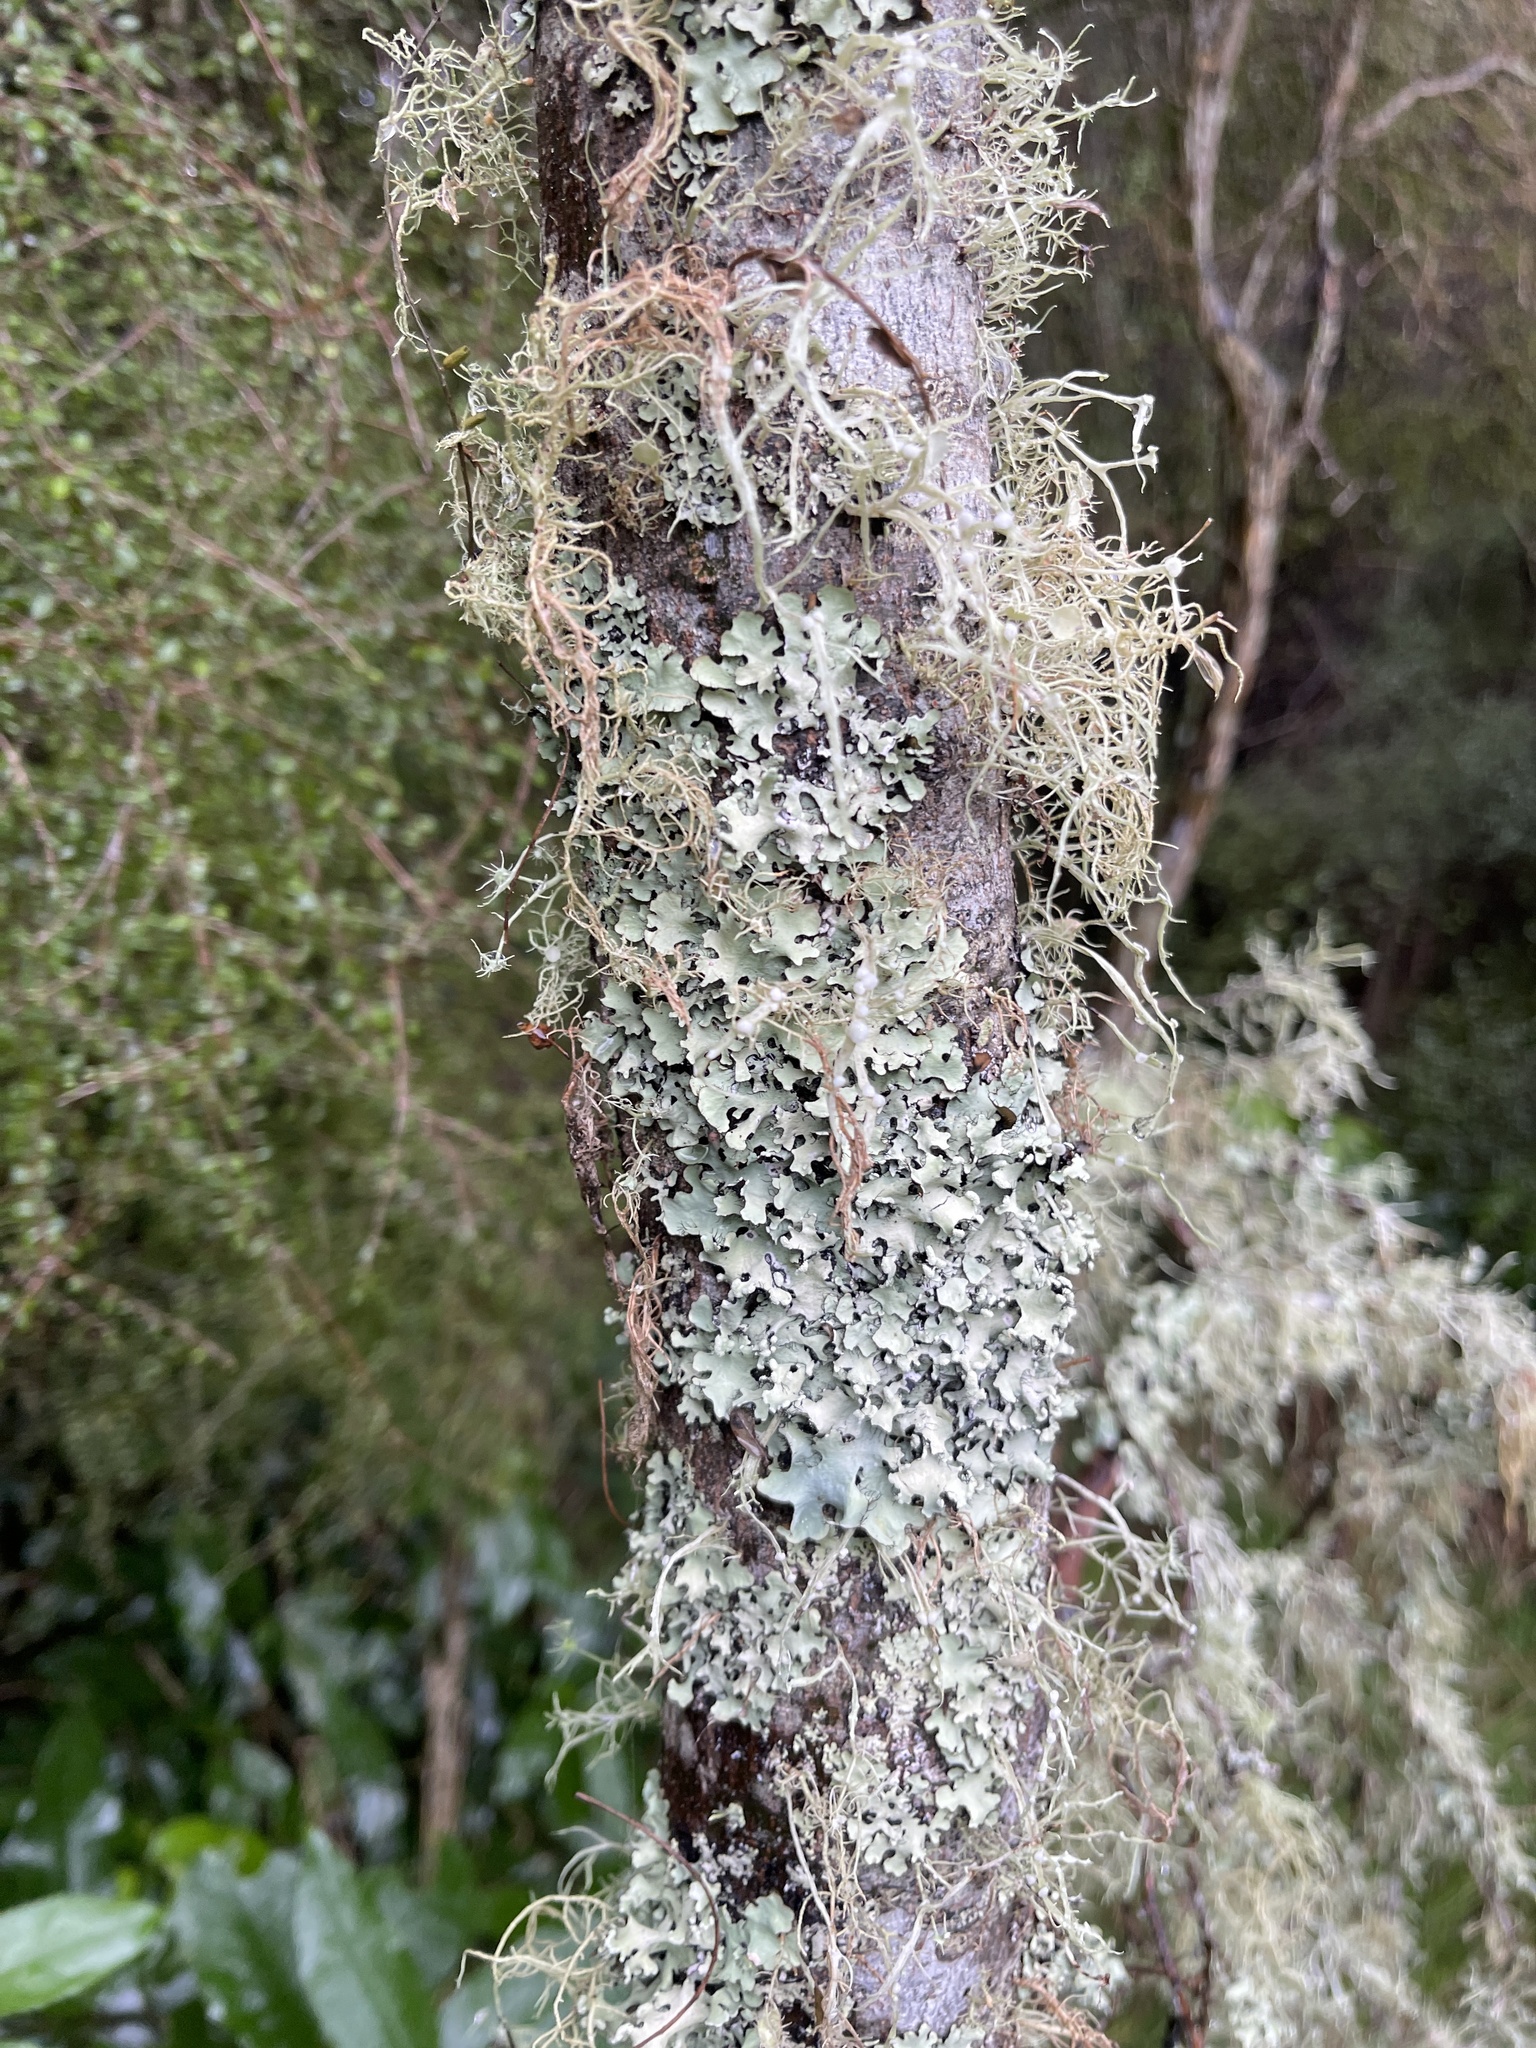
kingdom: Plantae
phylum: Tracheophyta
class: Magnoliopsida
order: Fabales
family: Fabaceae
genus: Sophora
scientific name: Sophora microphylla
